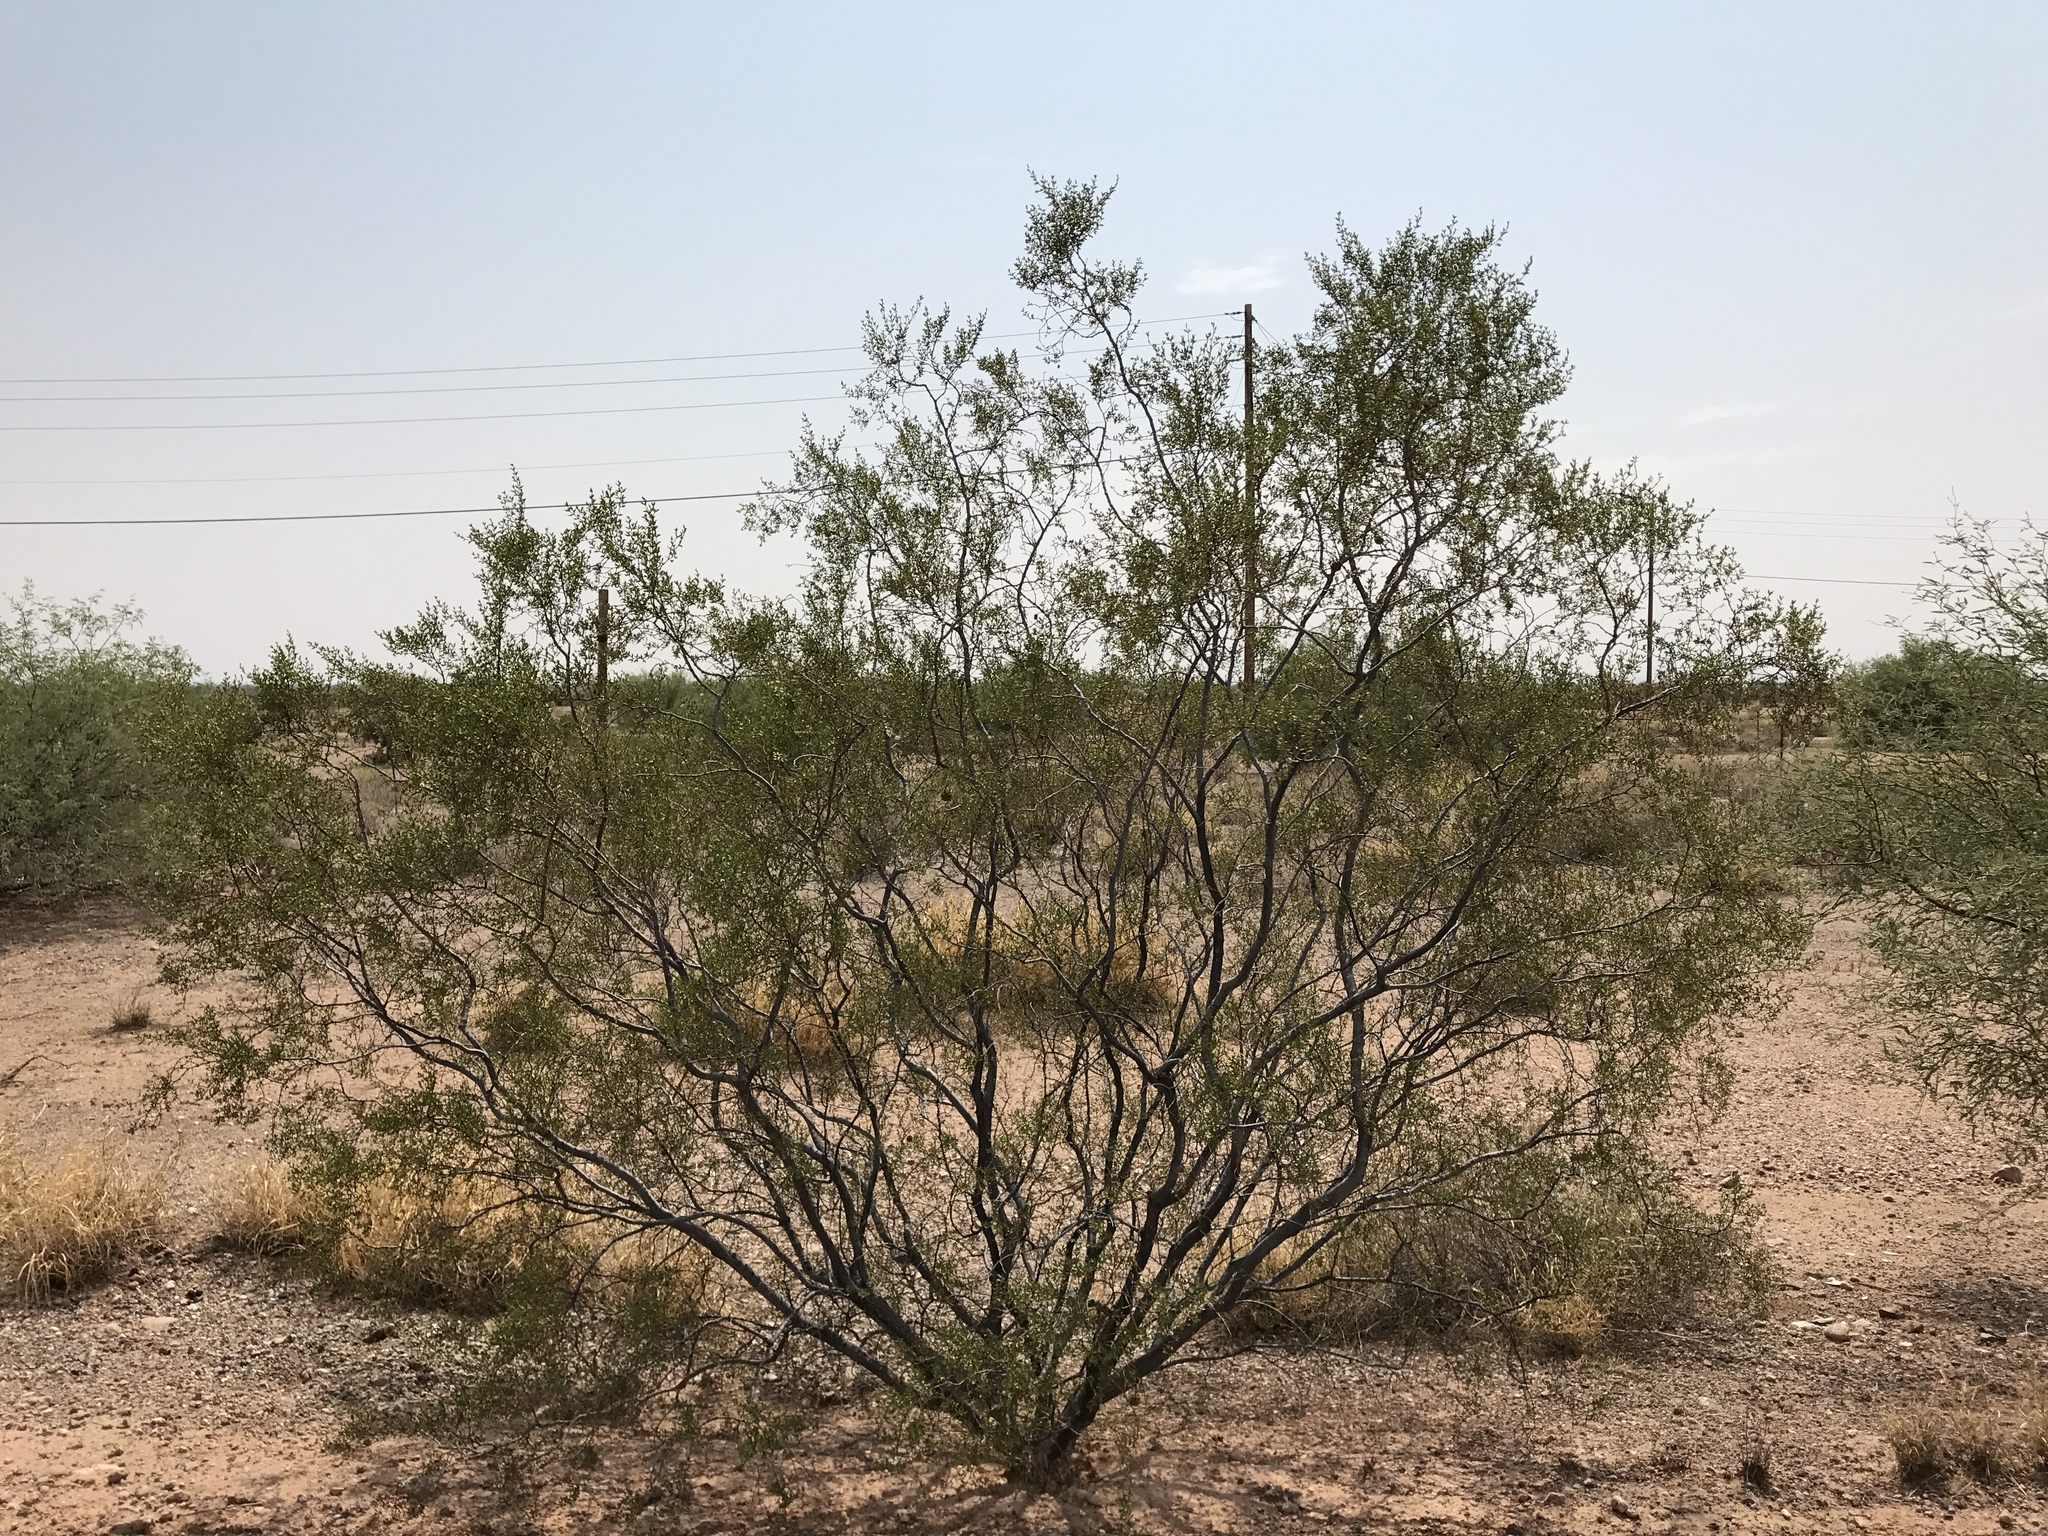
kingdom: Plantae
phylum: Tracheophyta
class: Magnoliopsida
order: Zygophyllales
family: Zygophyllaceae
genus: Larrea
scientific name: Larrea tridentata
